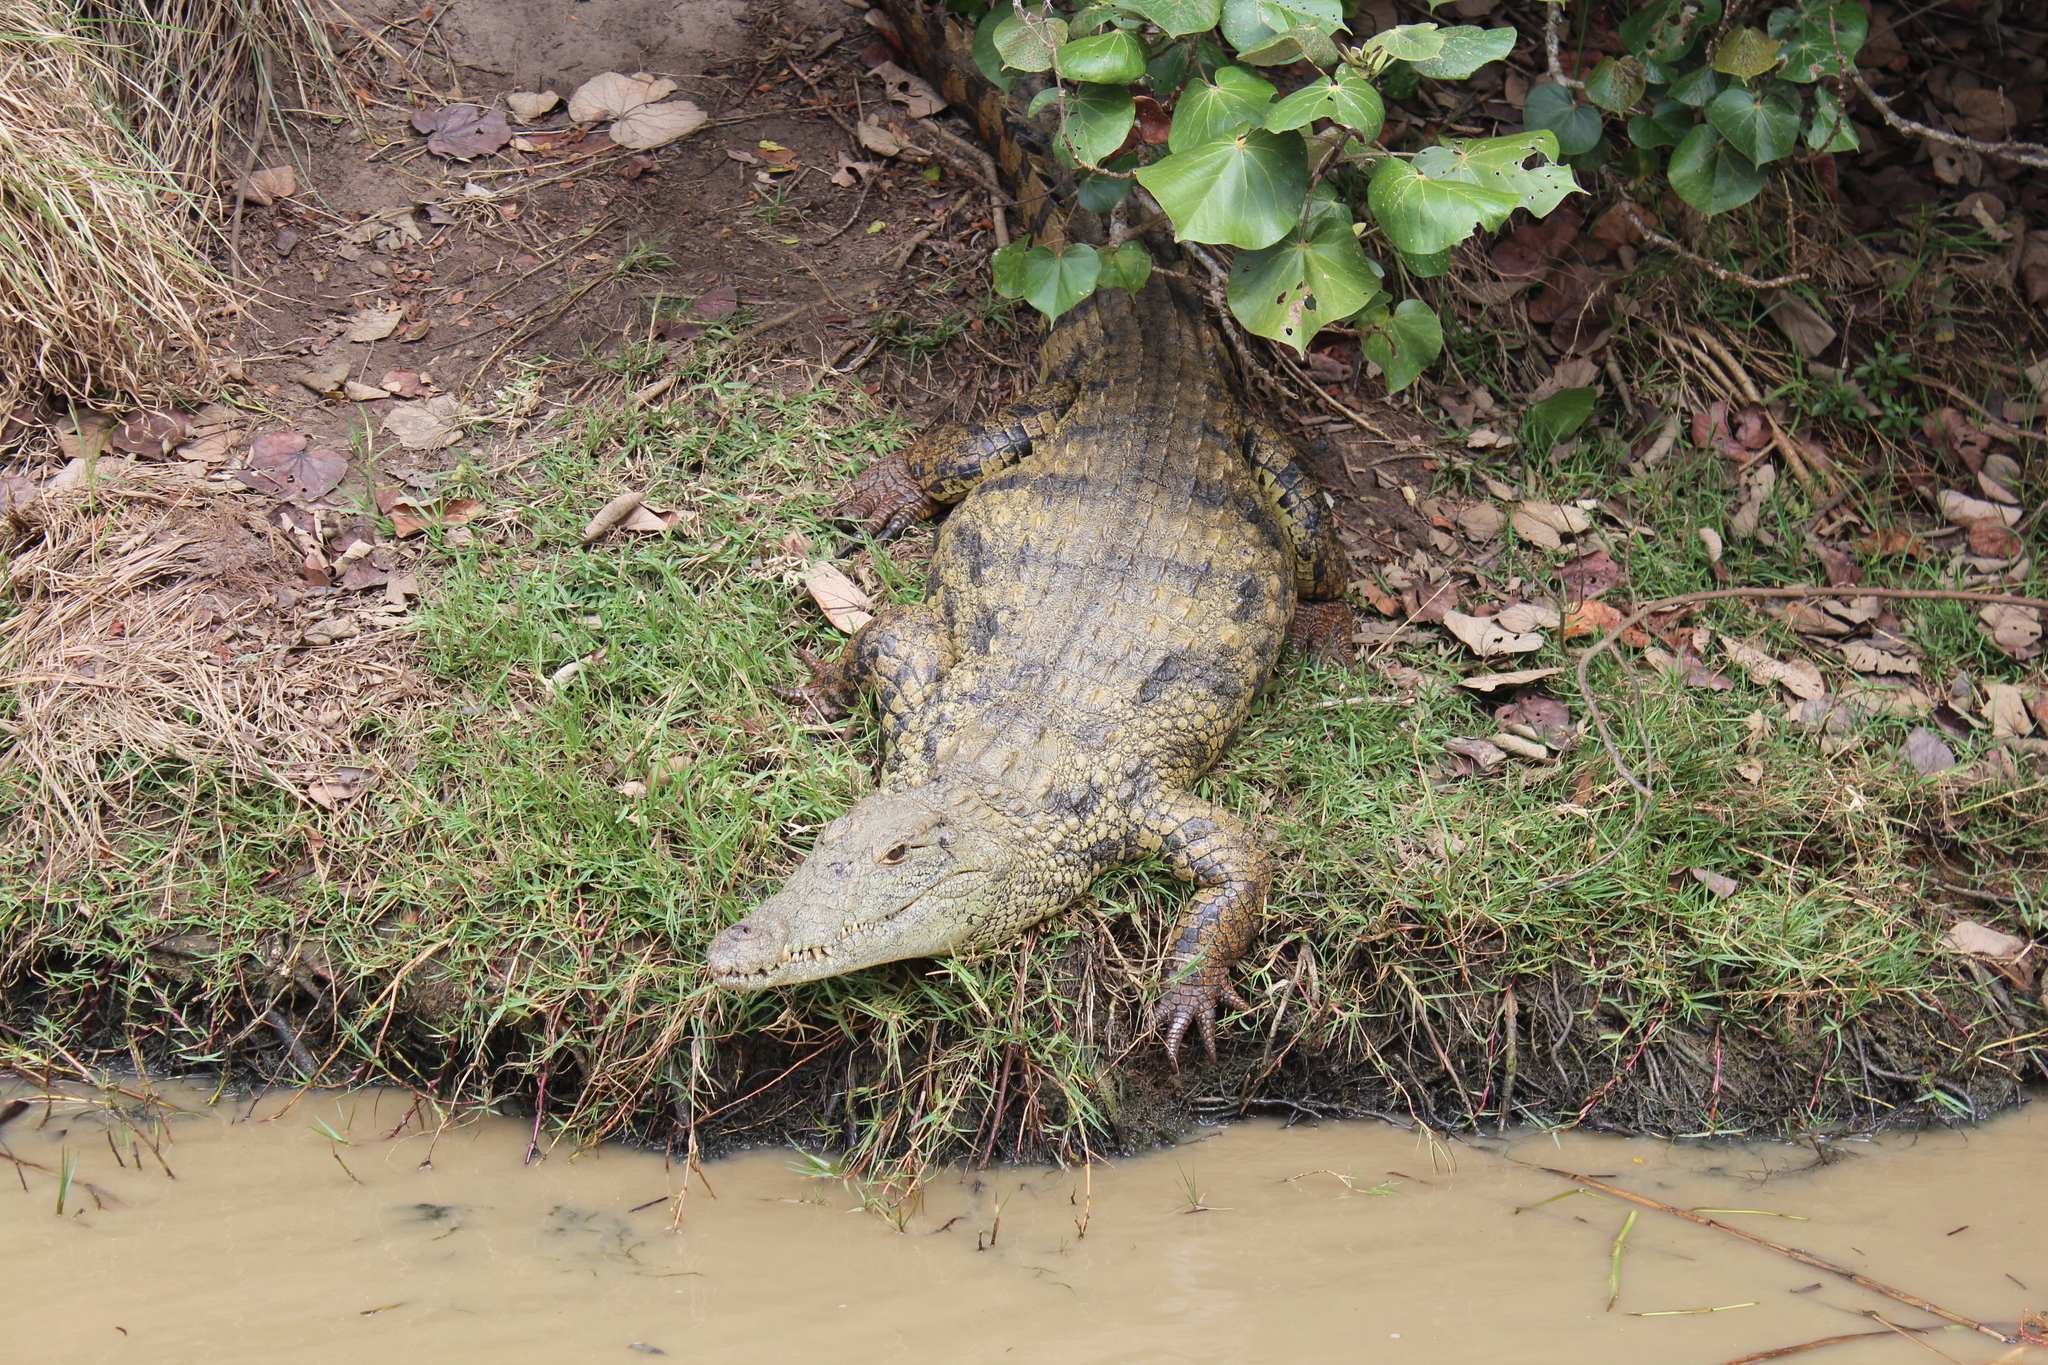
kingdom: Animalia
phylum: Chordata
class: Crocodylia
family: Crocodylidae
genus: Crocodylus
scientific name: Crocodylus niloticus
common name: Nile crocodile
